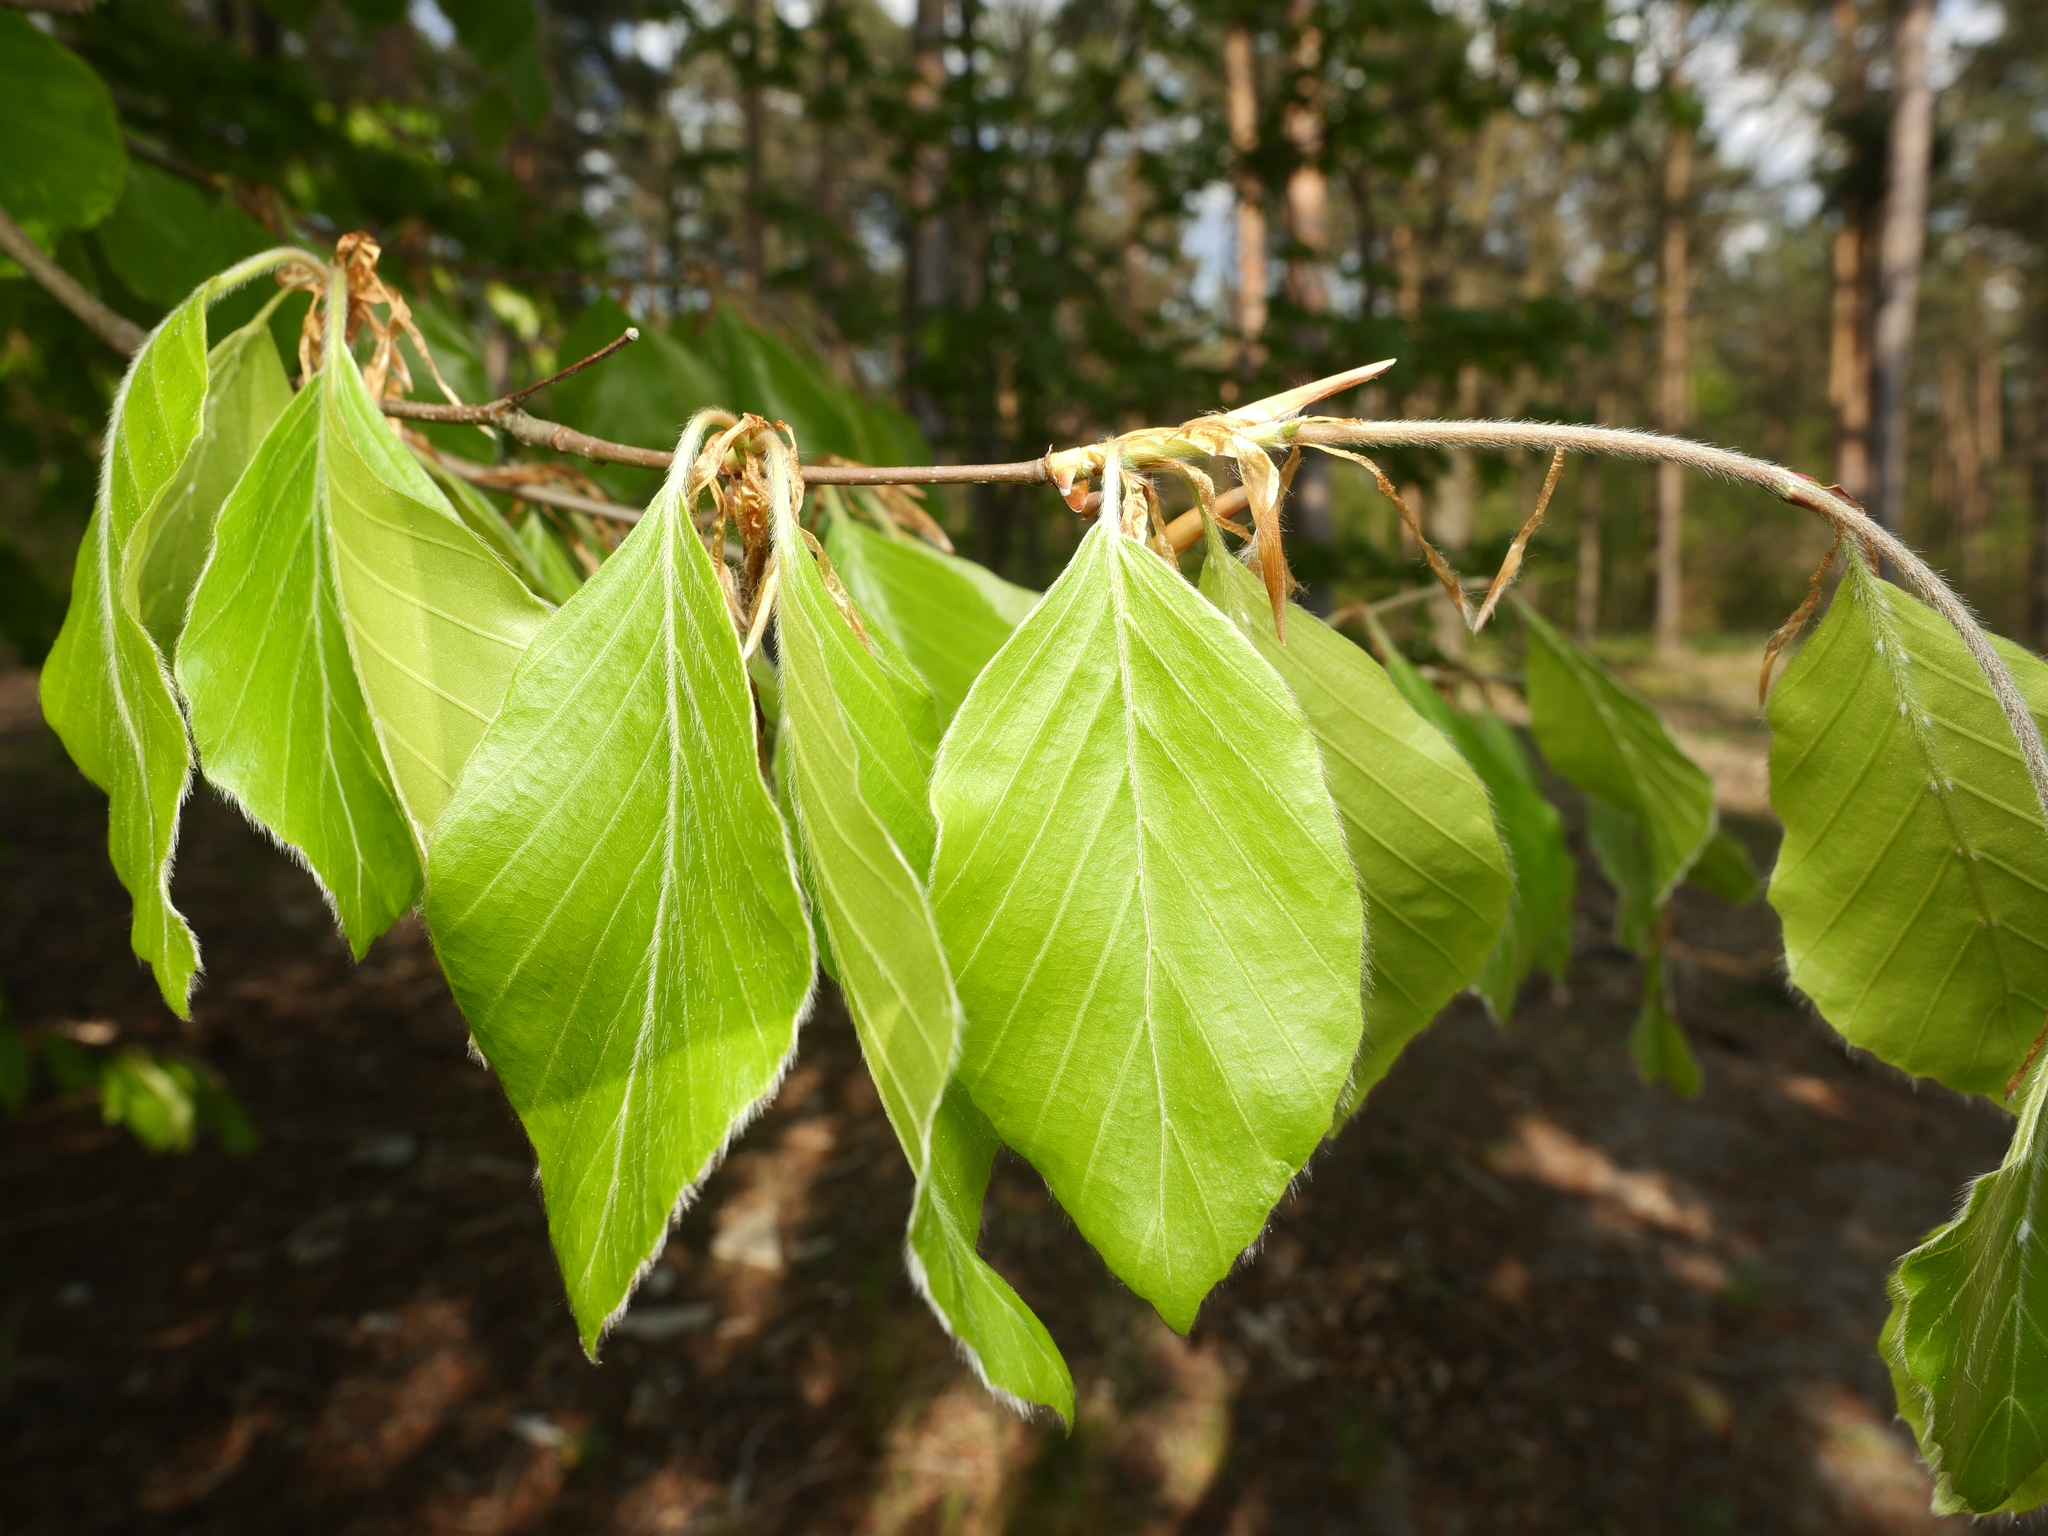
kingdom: Plantae
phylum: Tracheophyta
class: Magnoliopsida
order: Fagales
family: Fagaceae
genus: Fagus
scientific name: Fagus sylvatica
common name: Beech
